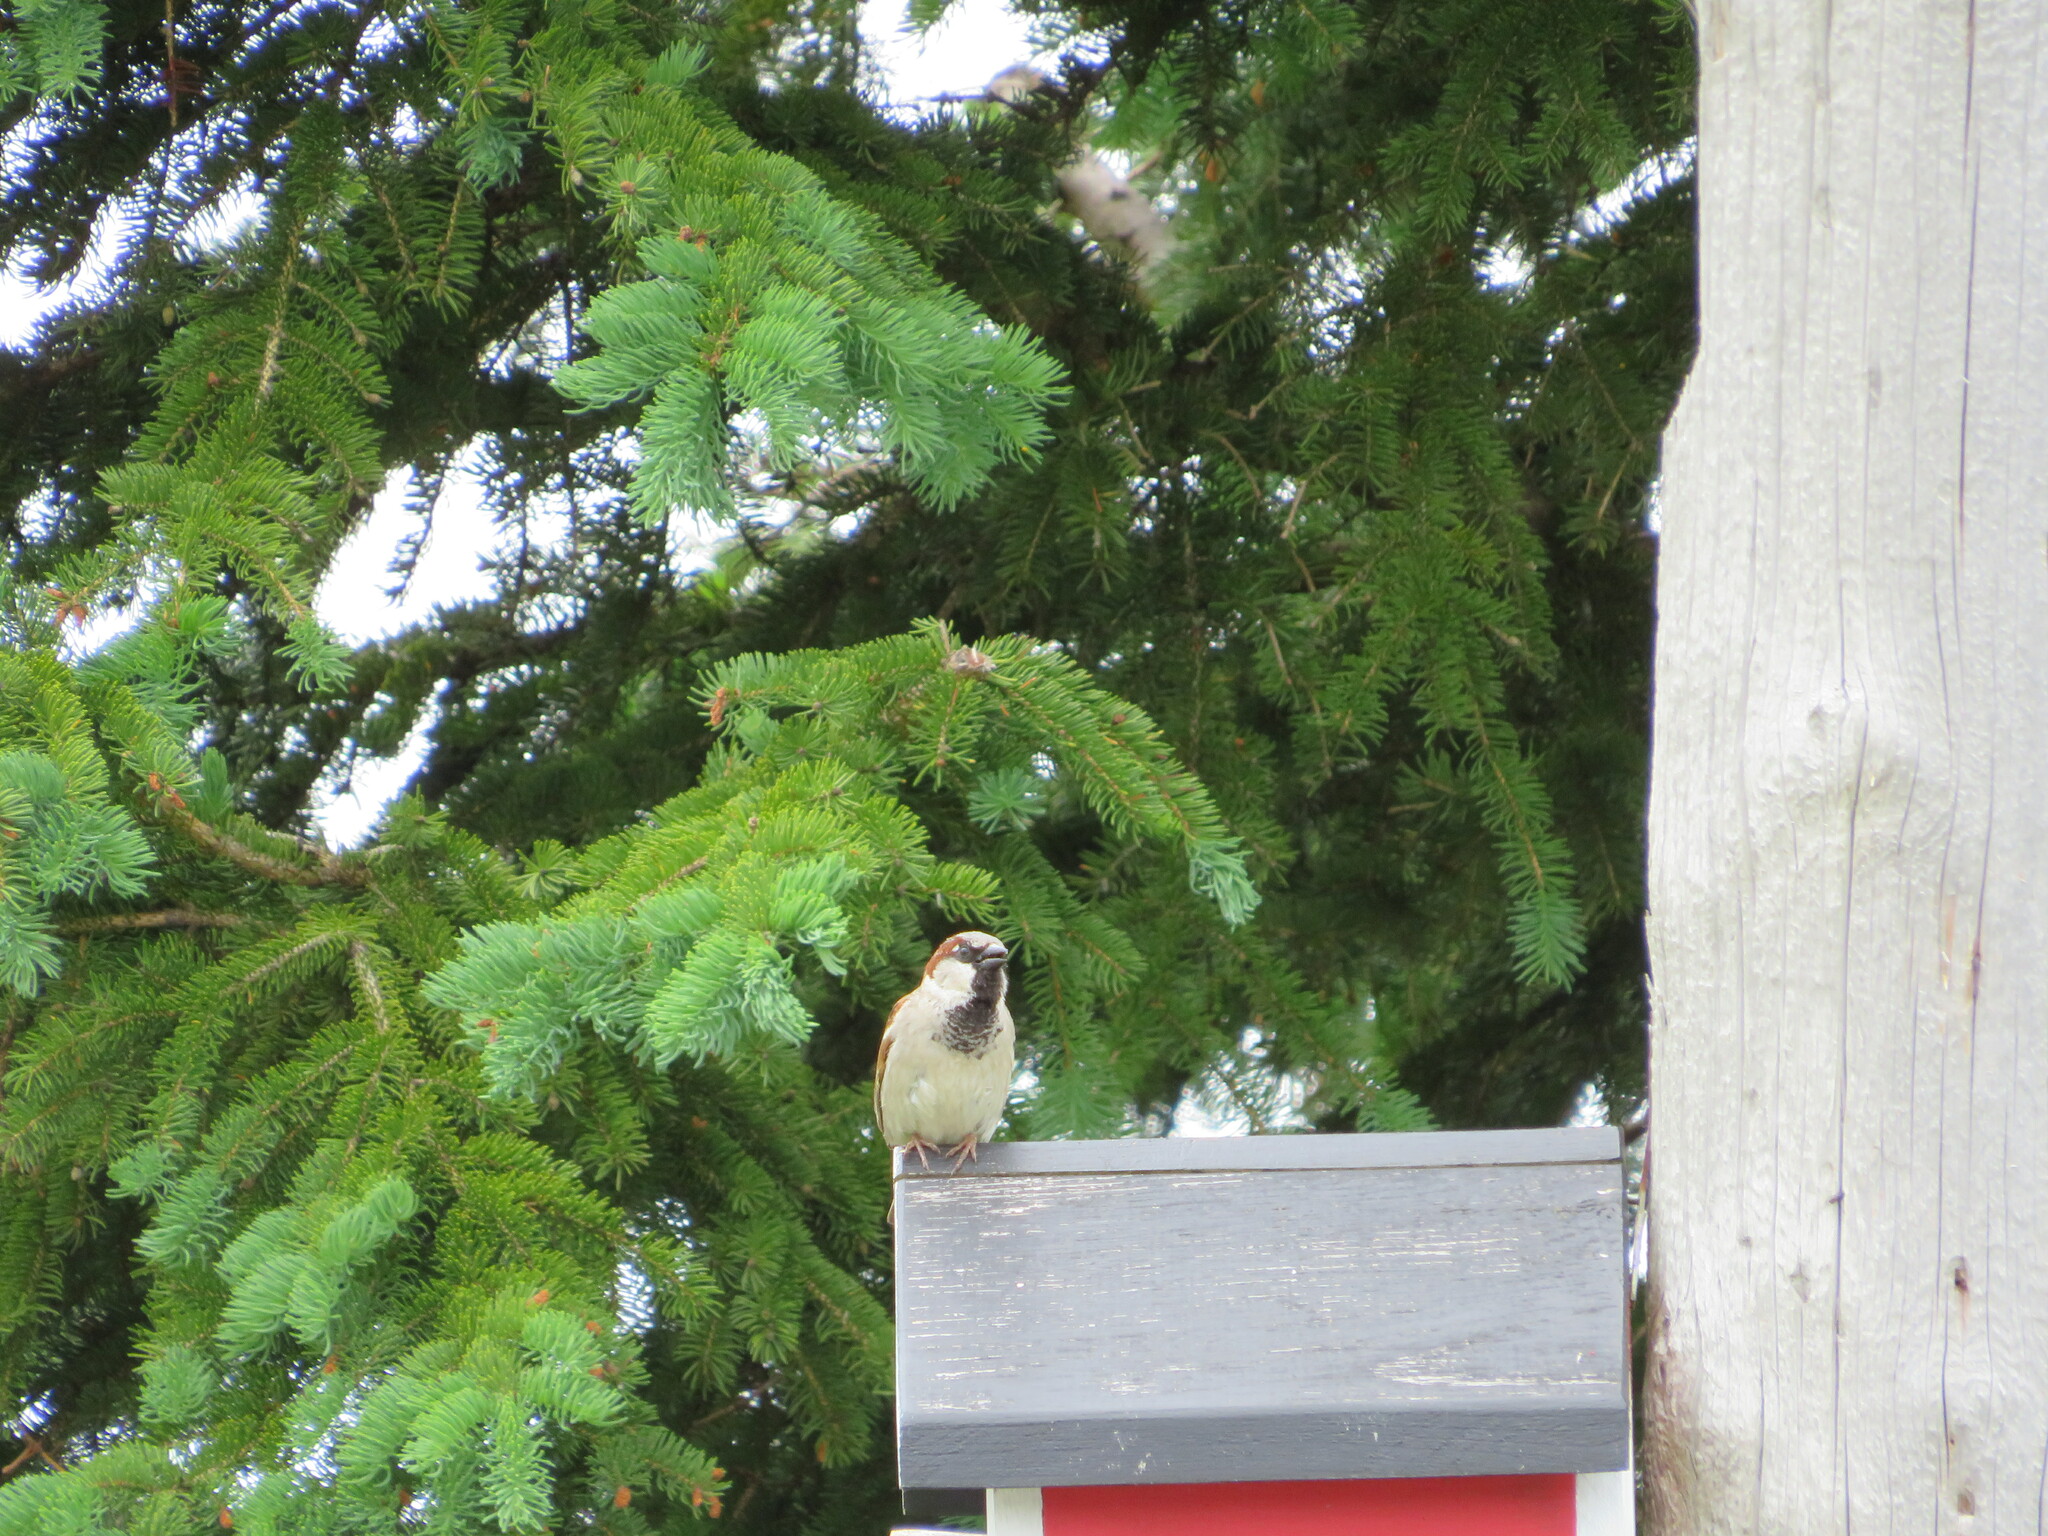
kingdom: Animalia
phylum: Chordata
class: Aves
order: Passeriformes
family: Passeridae
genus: Passer
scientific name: Passer domesticus
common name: House sparrow
